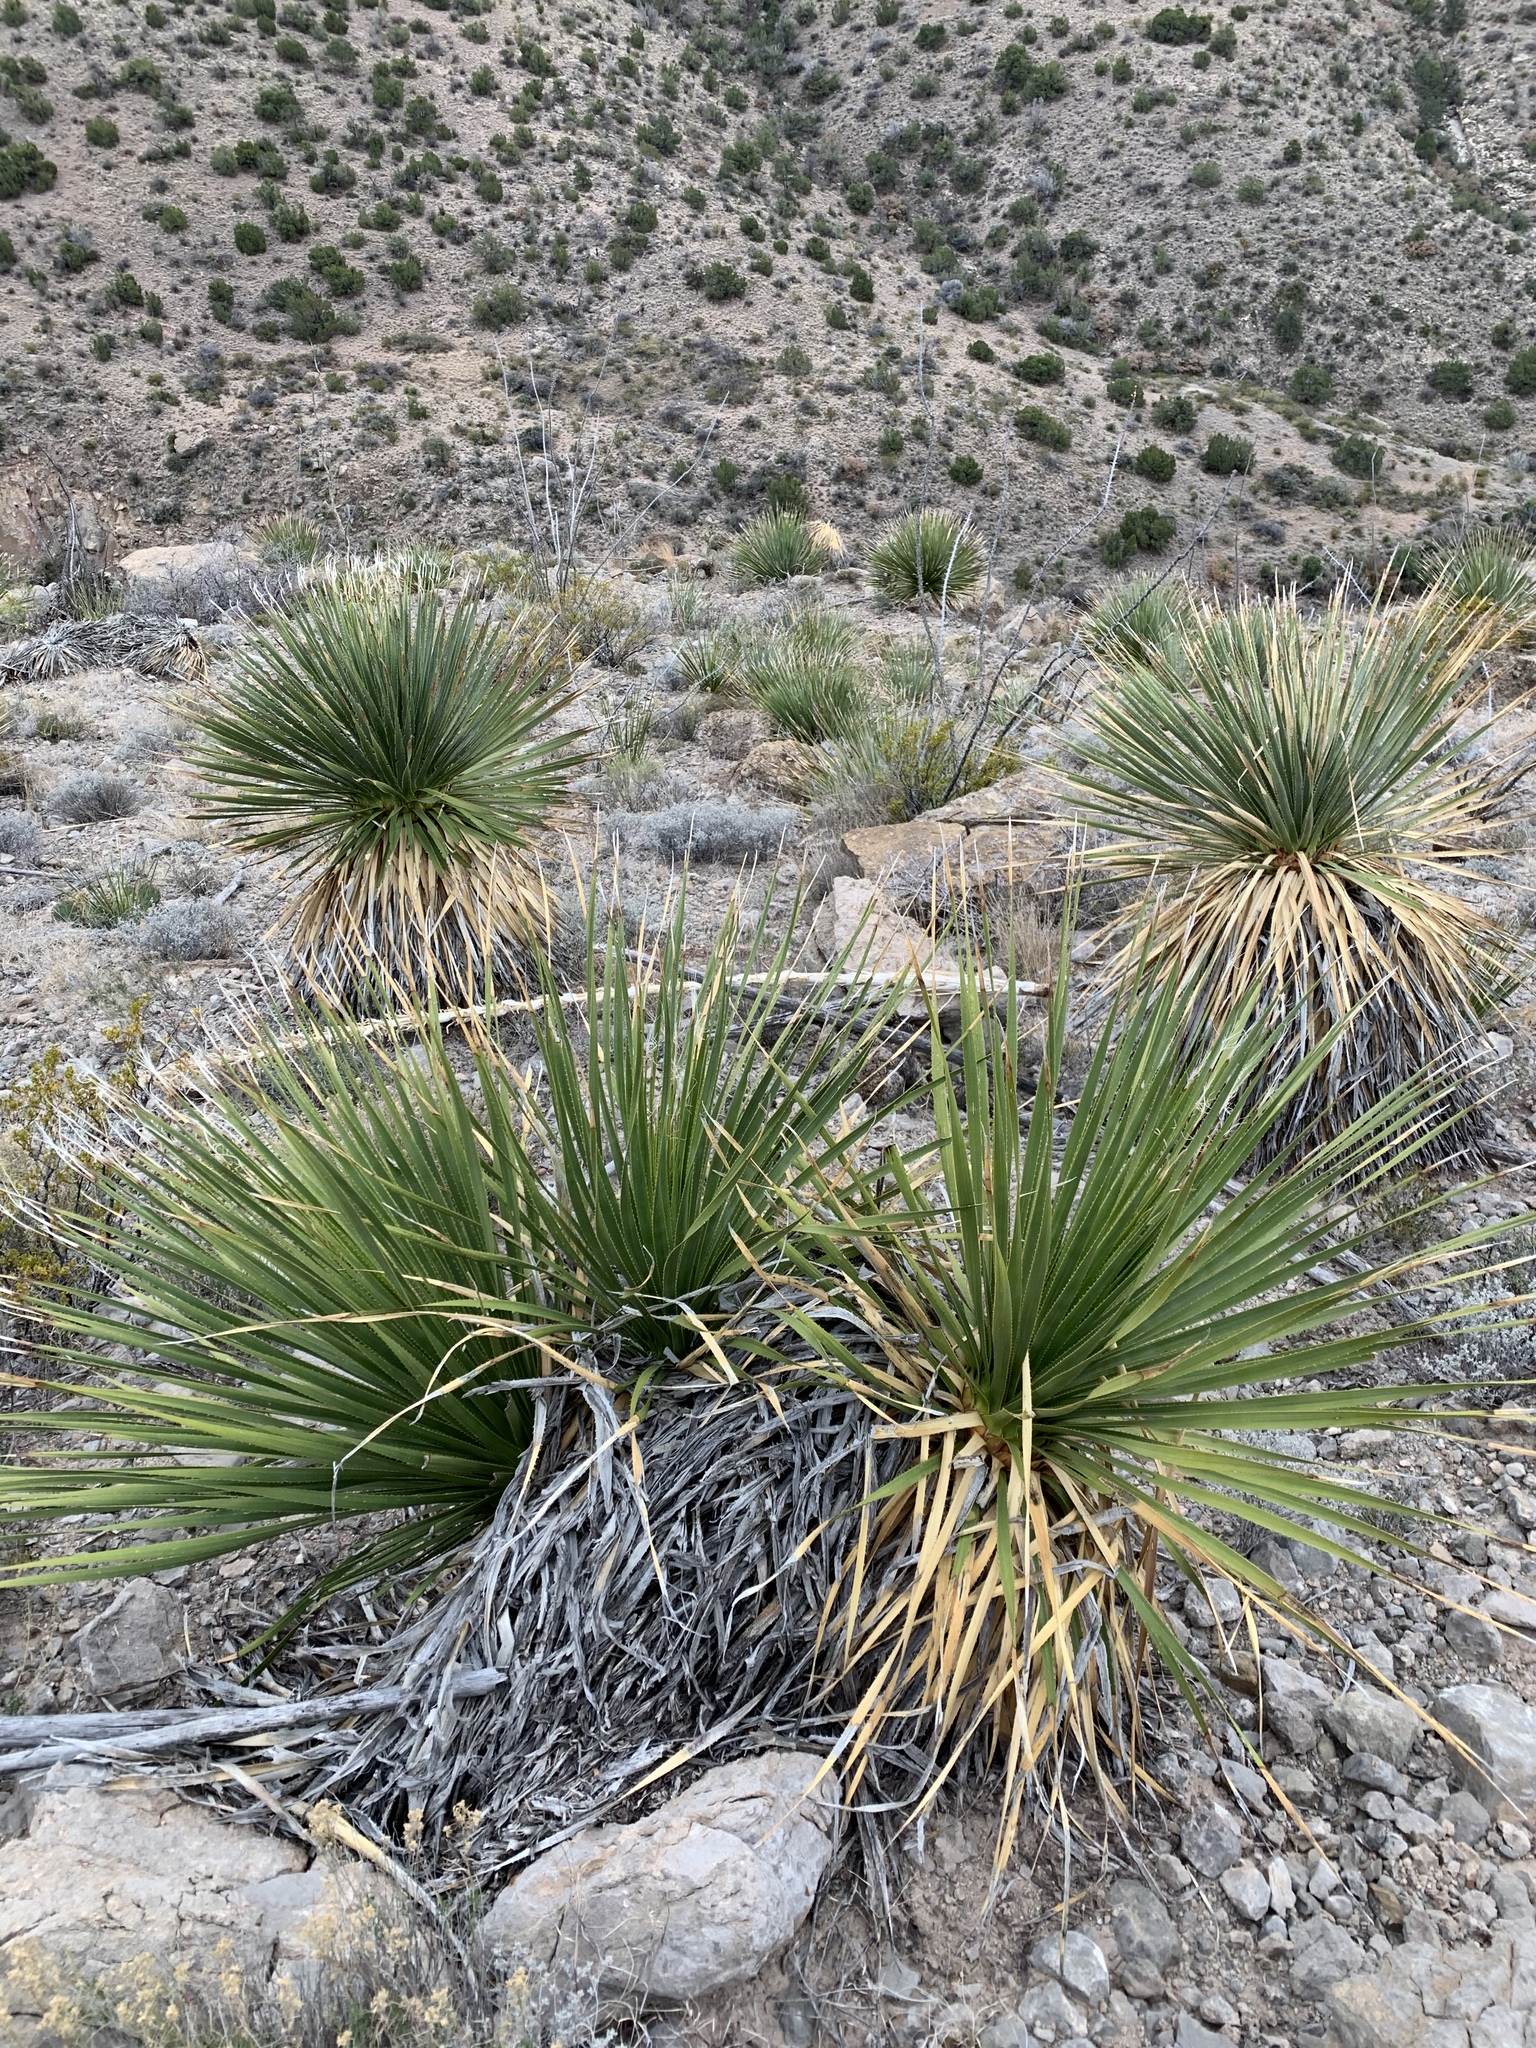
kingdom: Plantae
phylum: Tracheophyta
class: Liliopsida
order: Asparagales
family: Asparagaceae
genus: Dasylirion
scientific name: Dasylirion wheeleri
